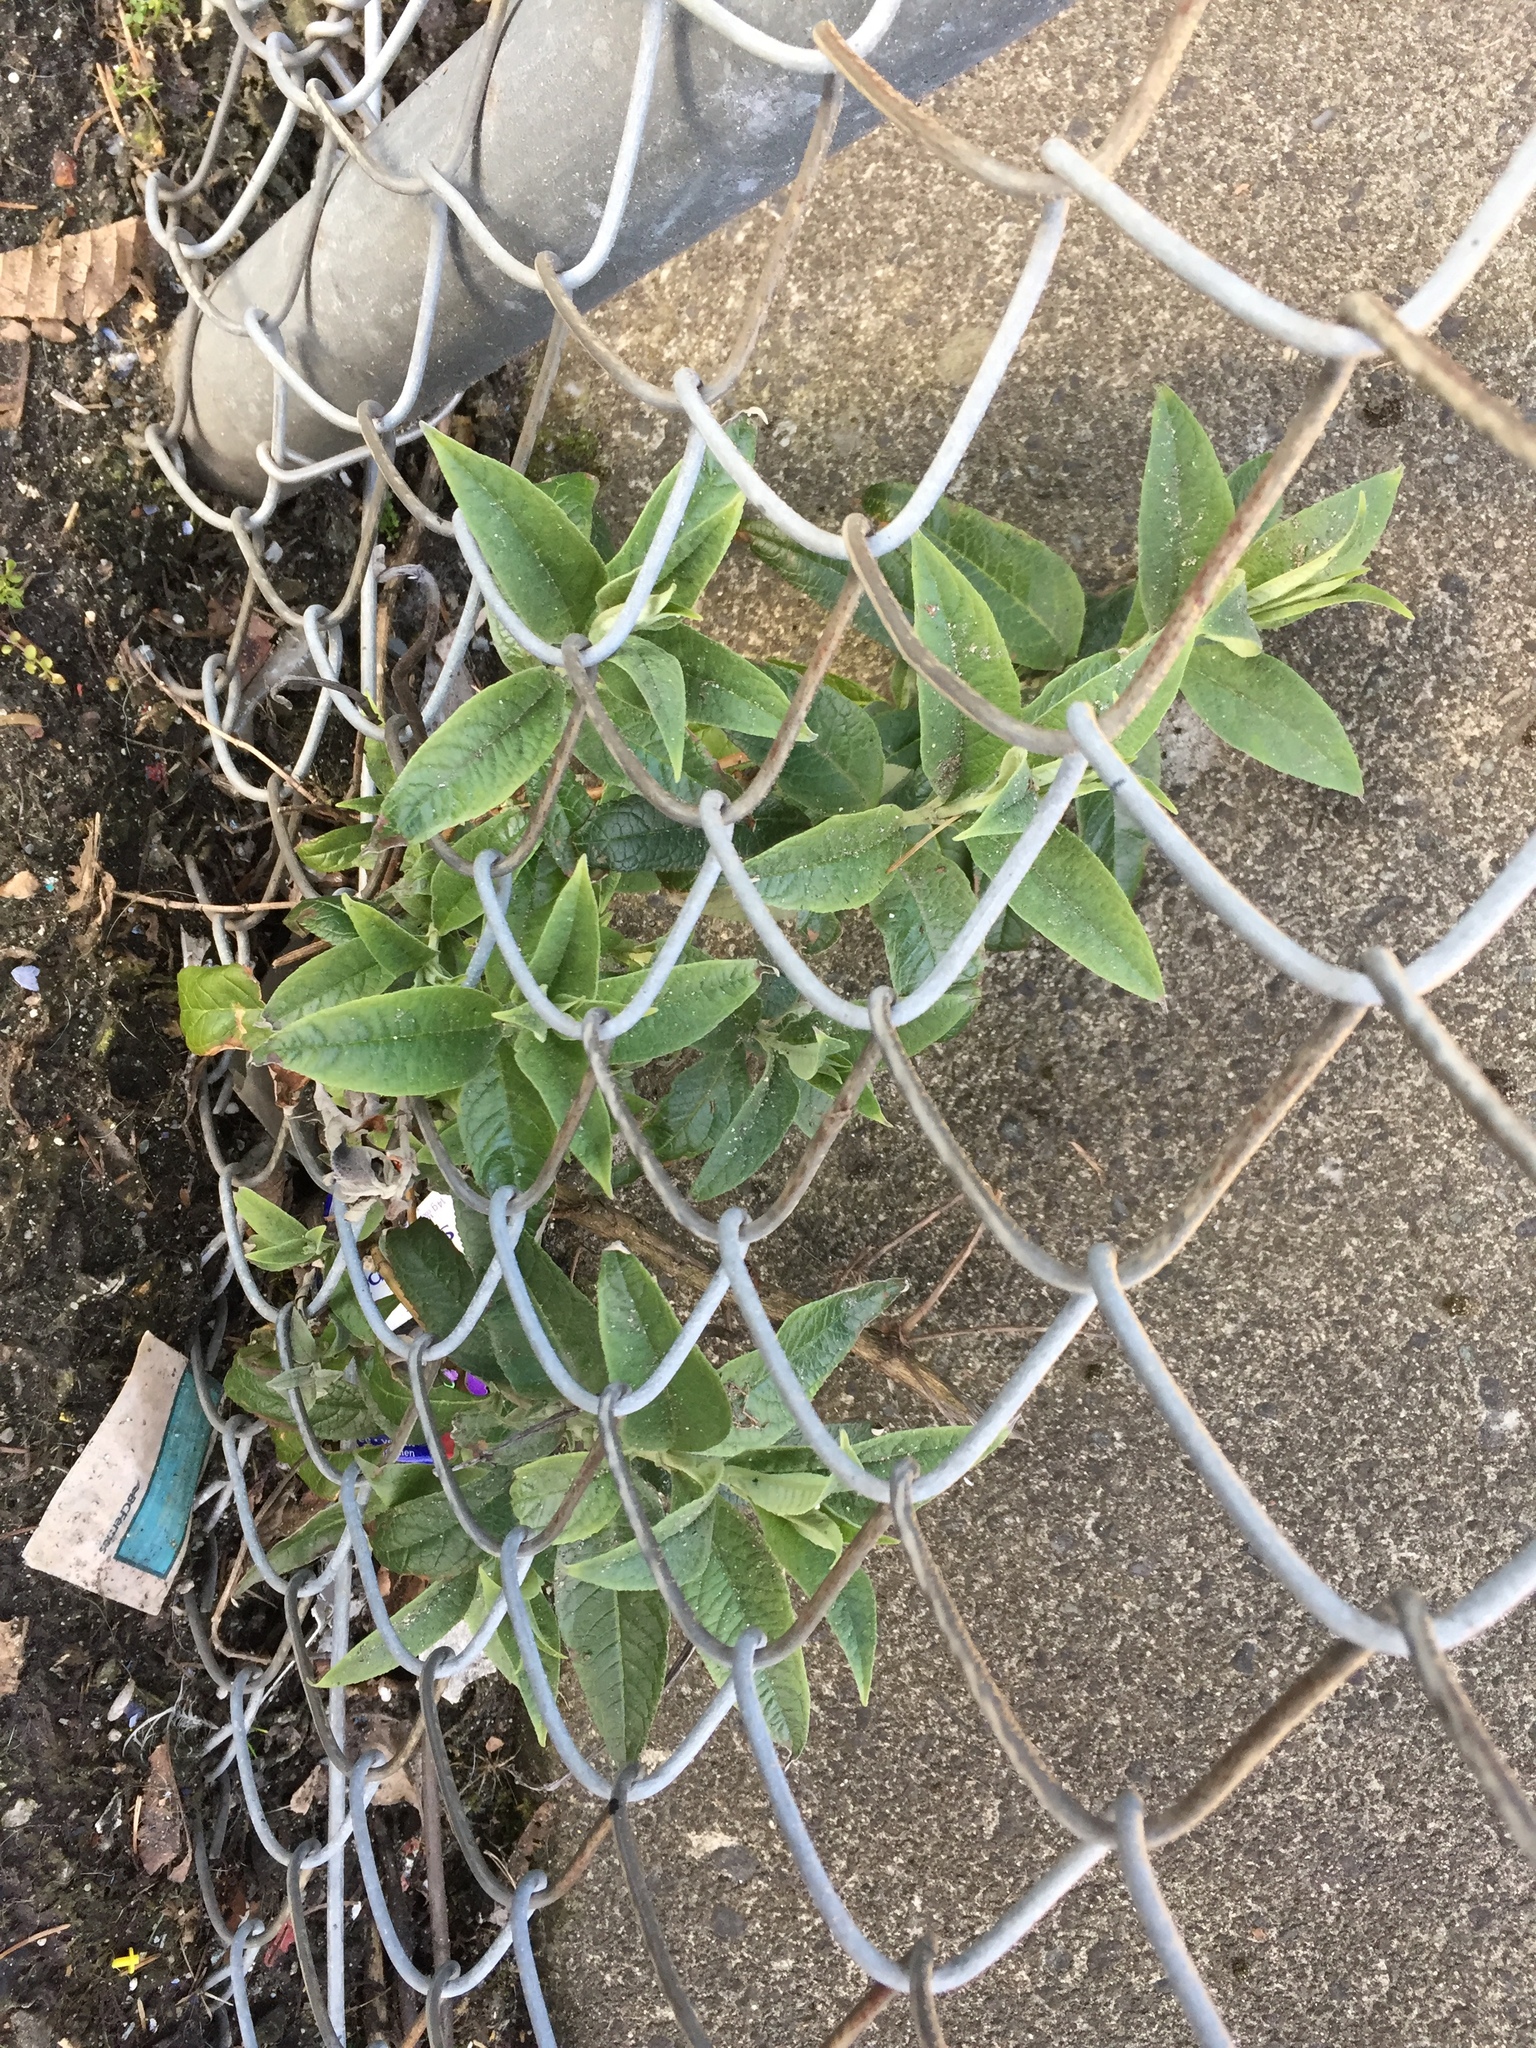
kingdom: Plantae
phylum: Tracheophyta
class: Magnoliopsida
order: Lamiales
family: Scrophulariaceae
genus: Buddleja
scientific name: Buddleja davidii
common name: Butterfly-bush
